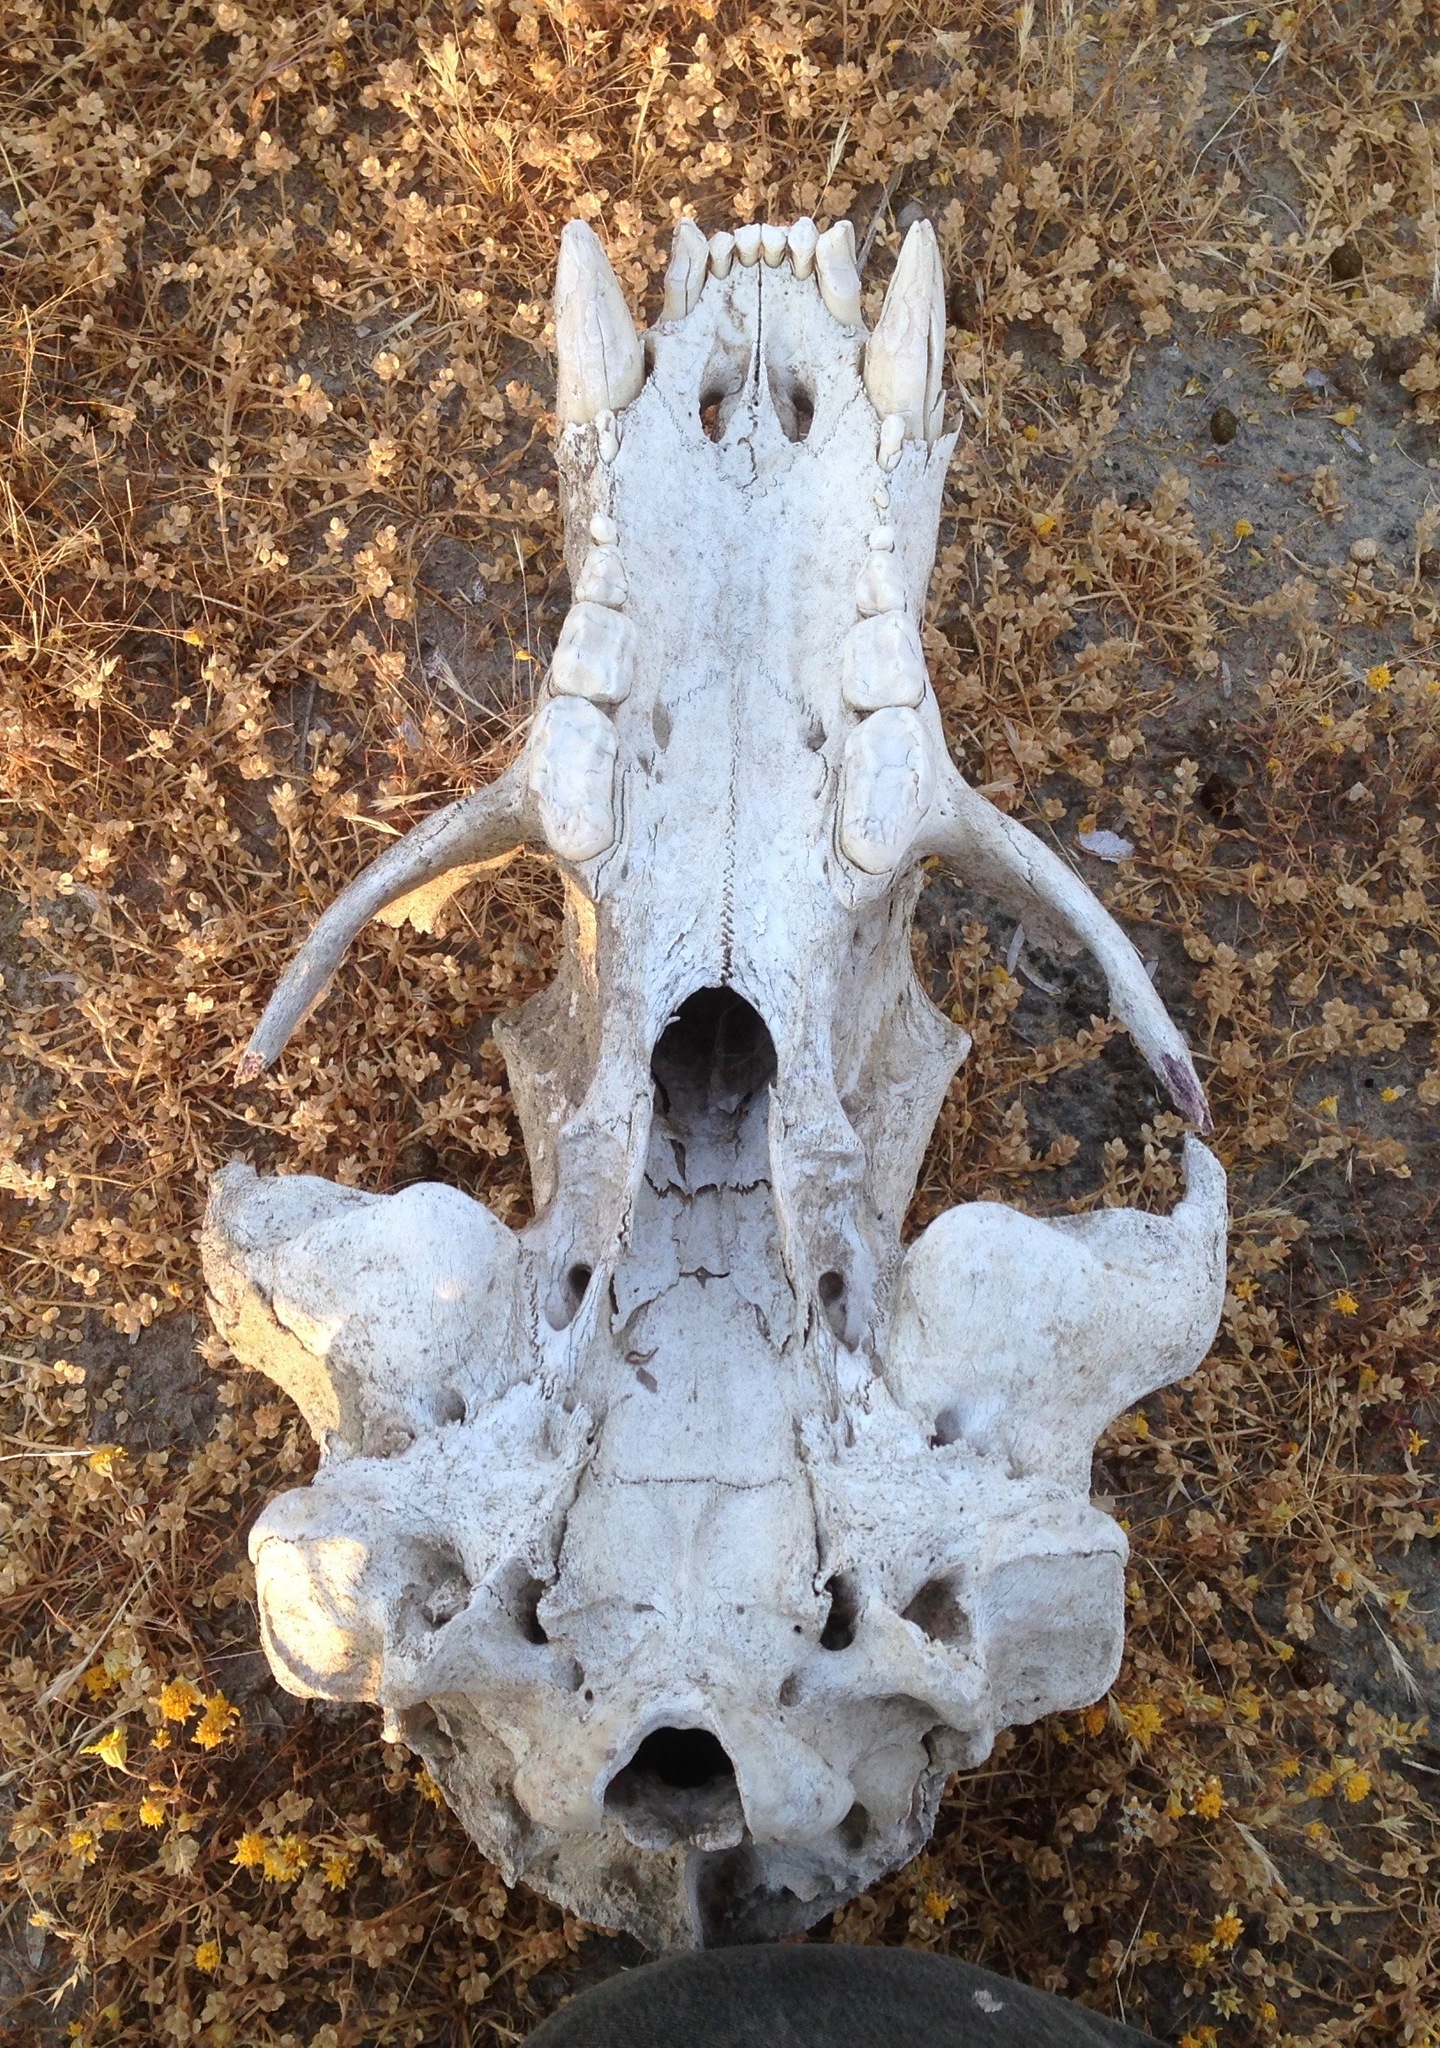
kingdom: Animalia
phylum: Chordata
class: Mammalia
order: Carnivora
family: Ursidae
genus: Ursus
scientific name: Ursus americanus
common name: American black bear
